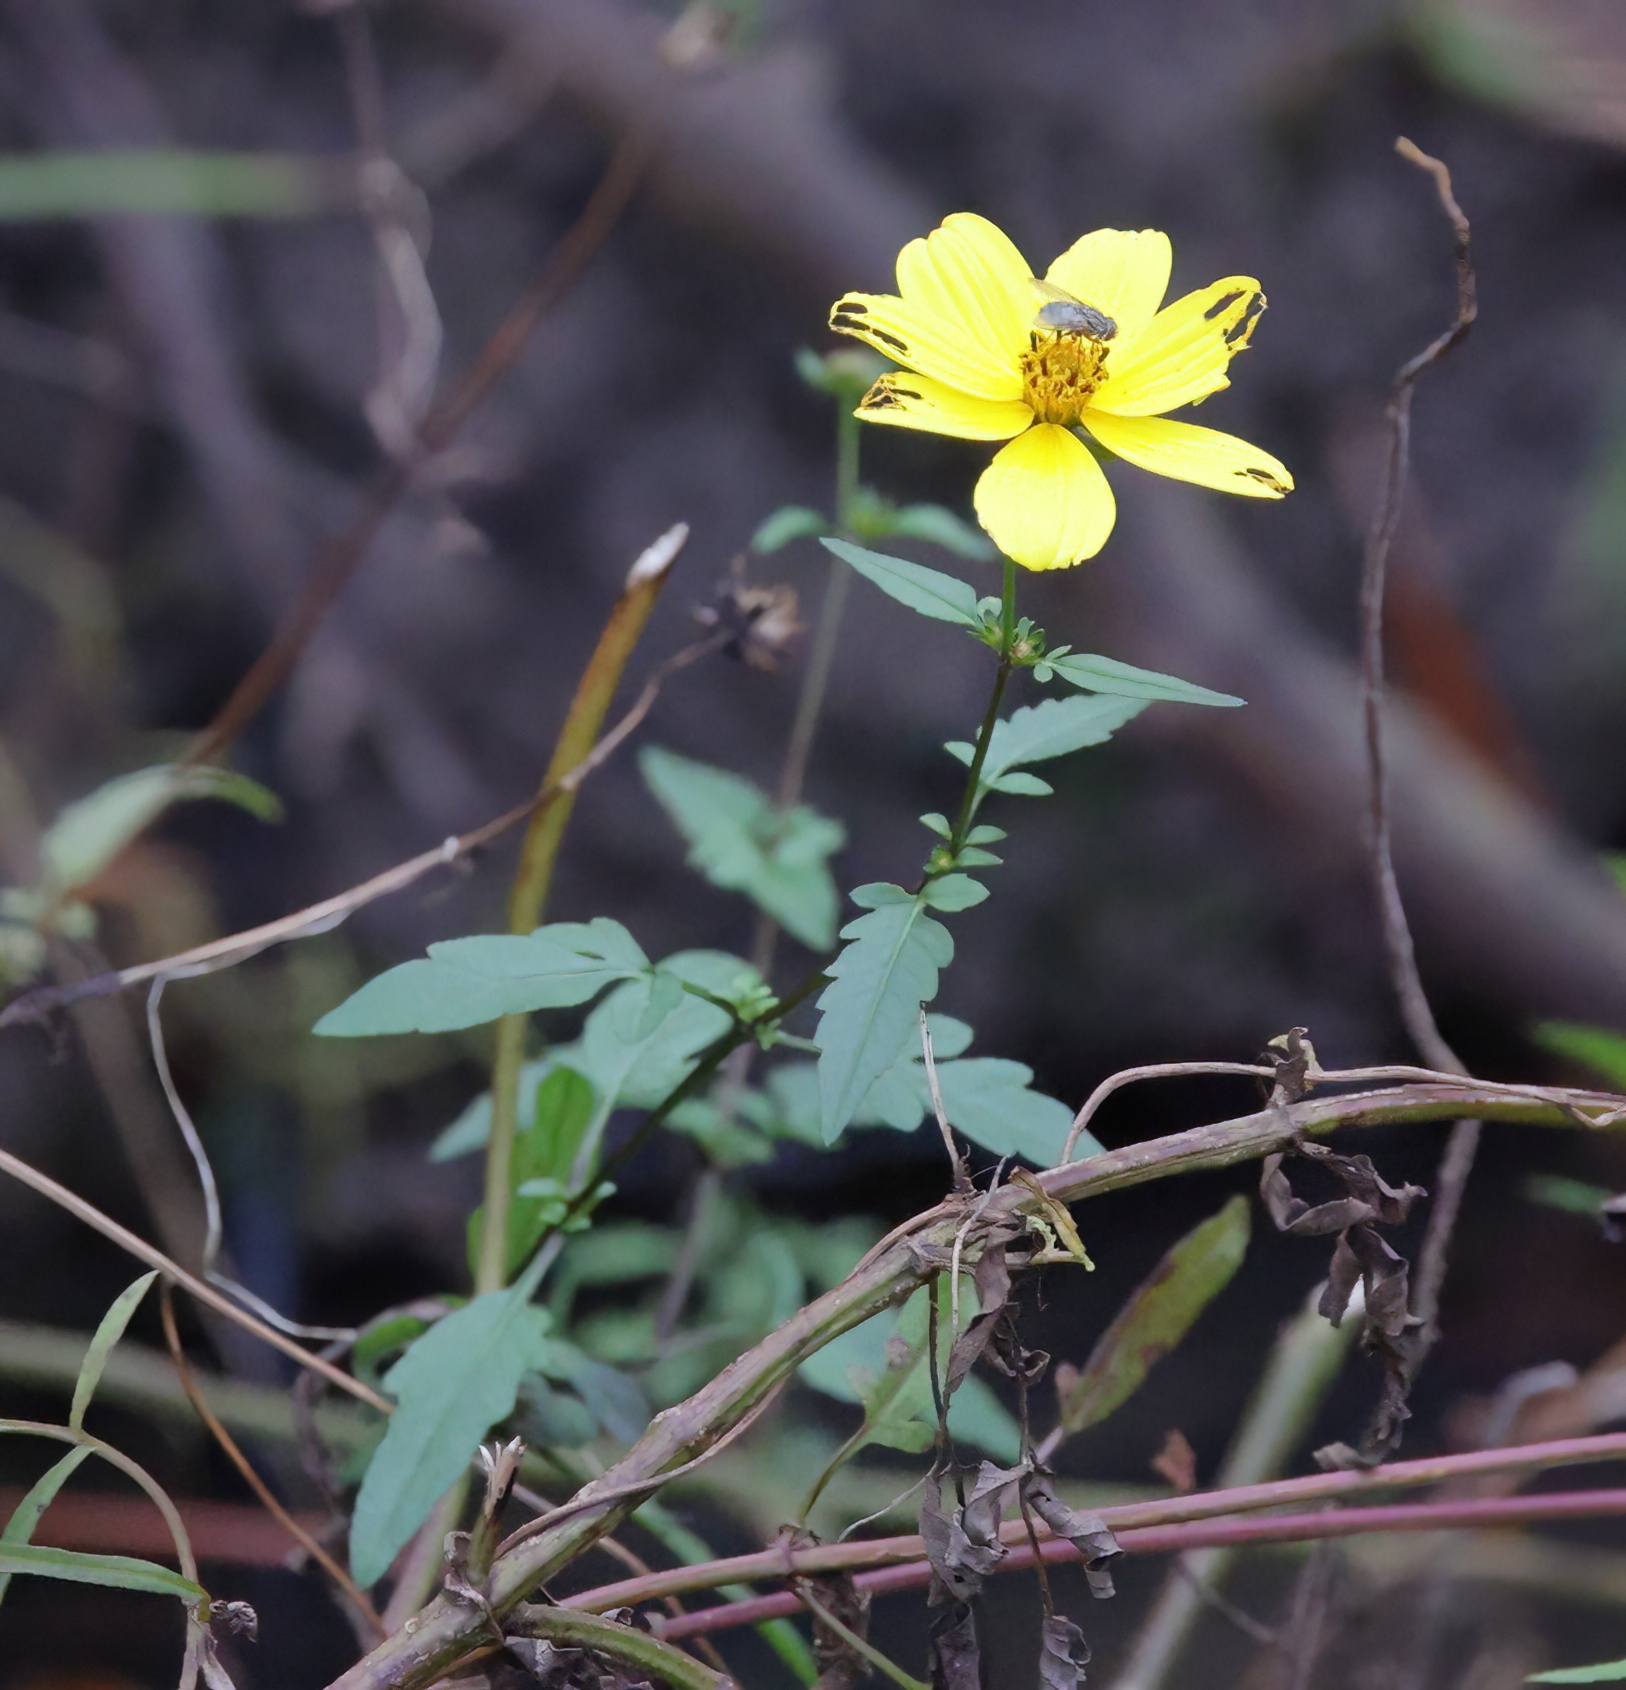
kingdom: Plantae
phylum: Tracheophyta
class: Magnoliopsida
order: Asterales
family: Asteraceae
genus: Bidens
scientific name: Bidens mitis
